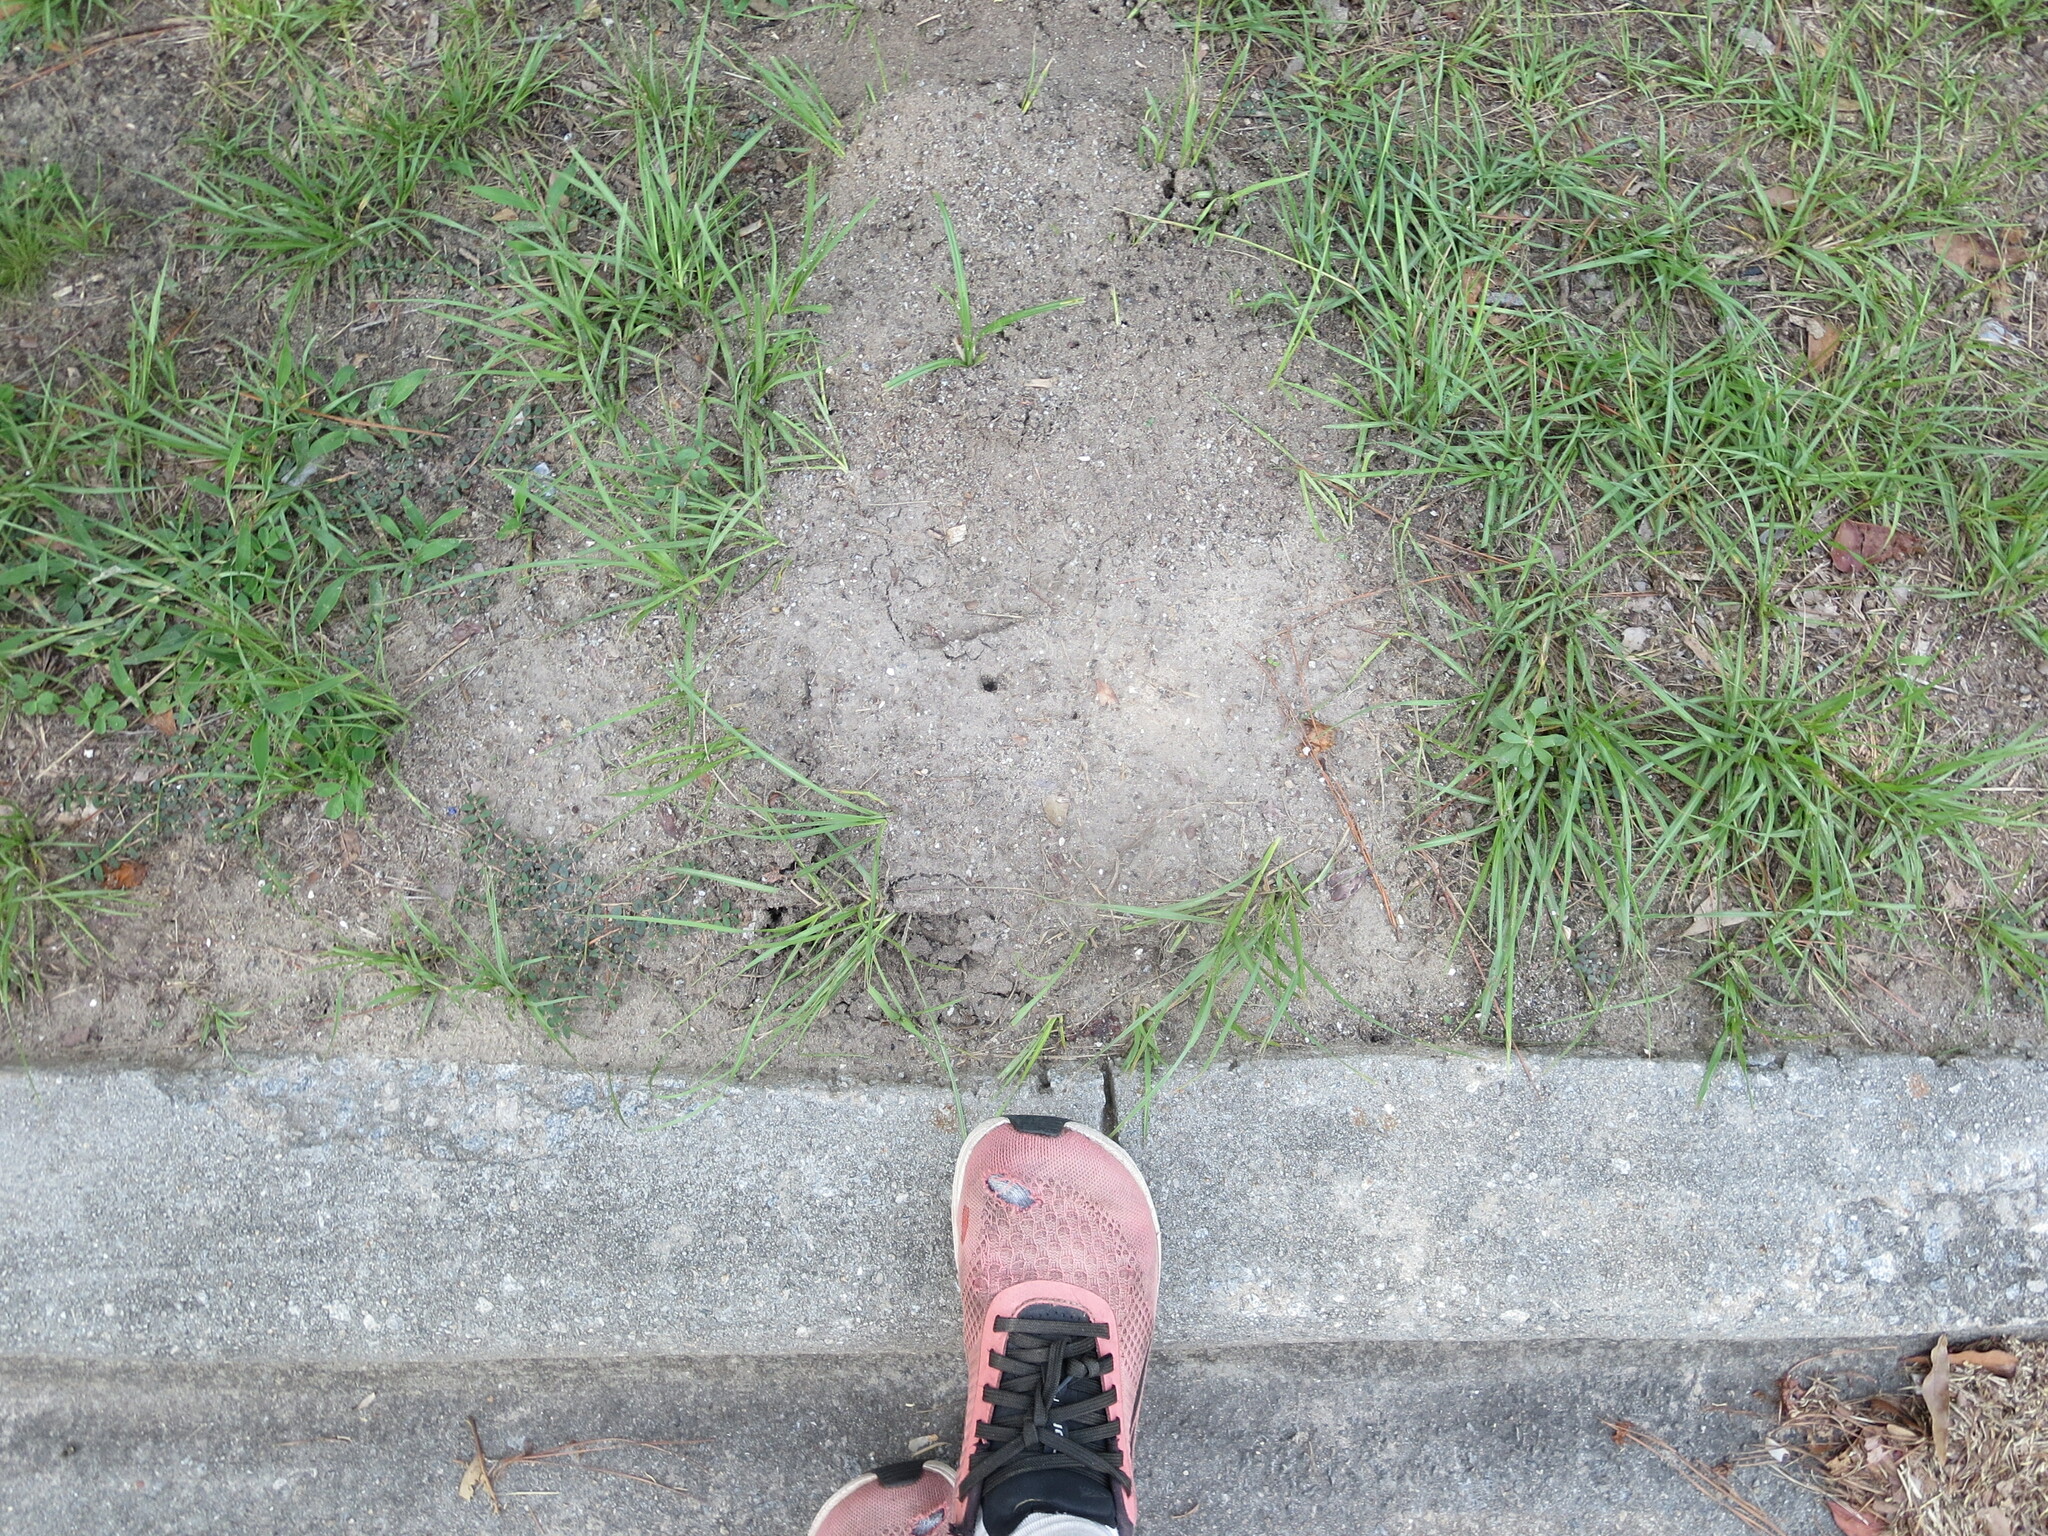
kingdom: Animalia
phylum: Arthropoda
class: Insecta
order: Hymenoptera
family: Formicidae
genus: Solenopsis
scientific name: Solenopsis invicta
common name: Red imported fire ant
